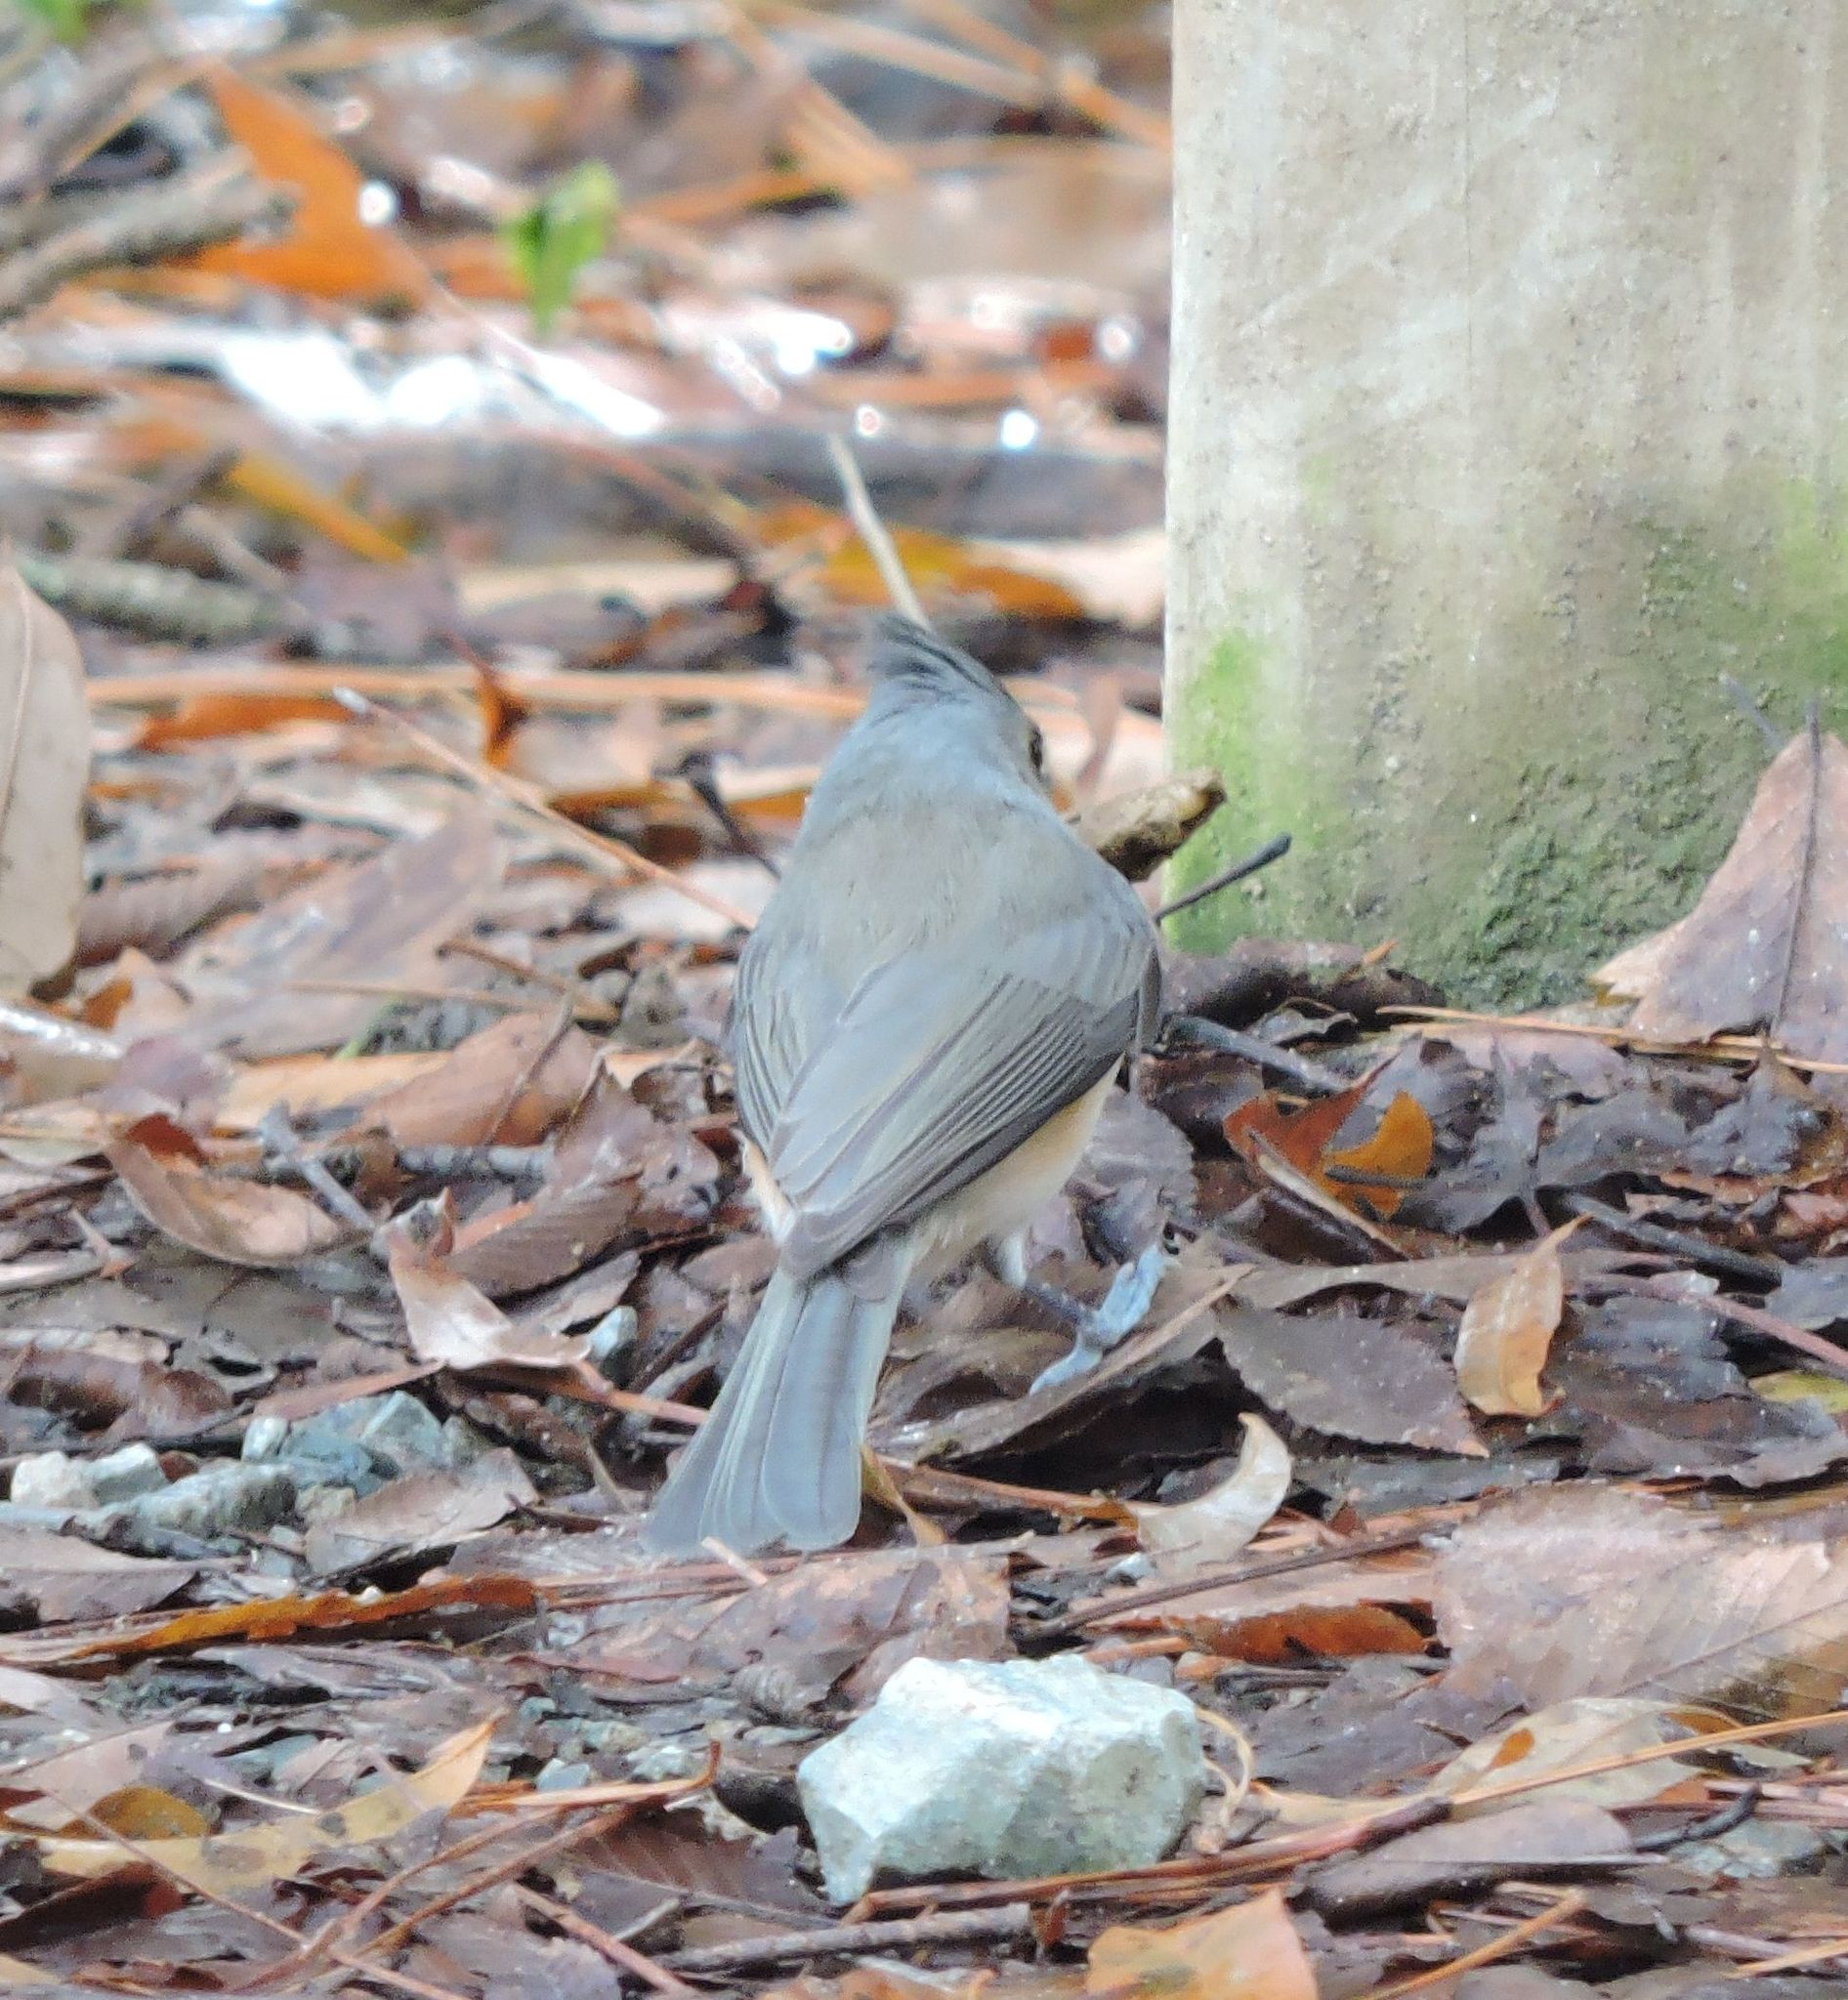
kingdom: Animalia
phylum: Chordata
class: Aves
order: Passeriformes
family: Paridae
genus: Baeolophus
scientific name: Baeolophus bicolor
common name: Tufted titmouse
